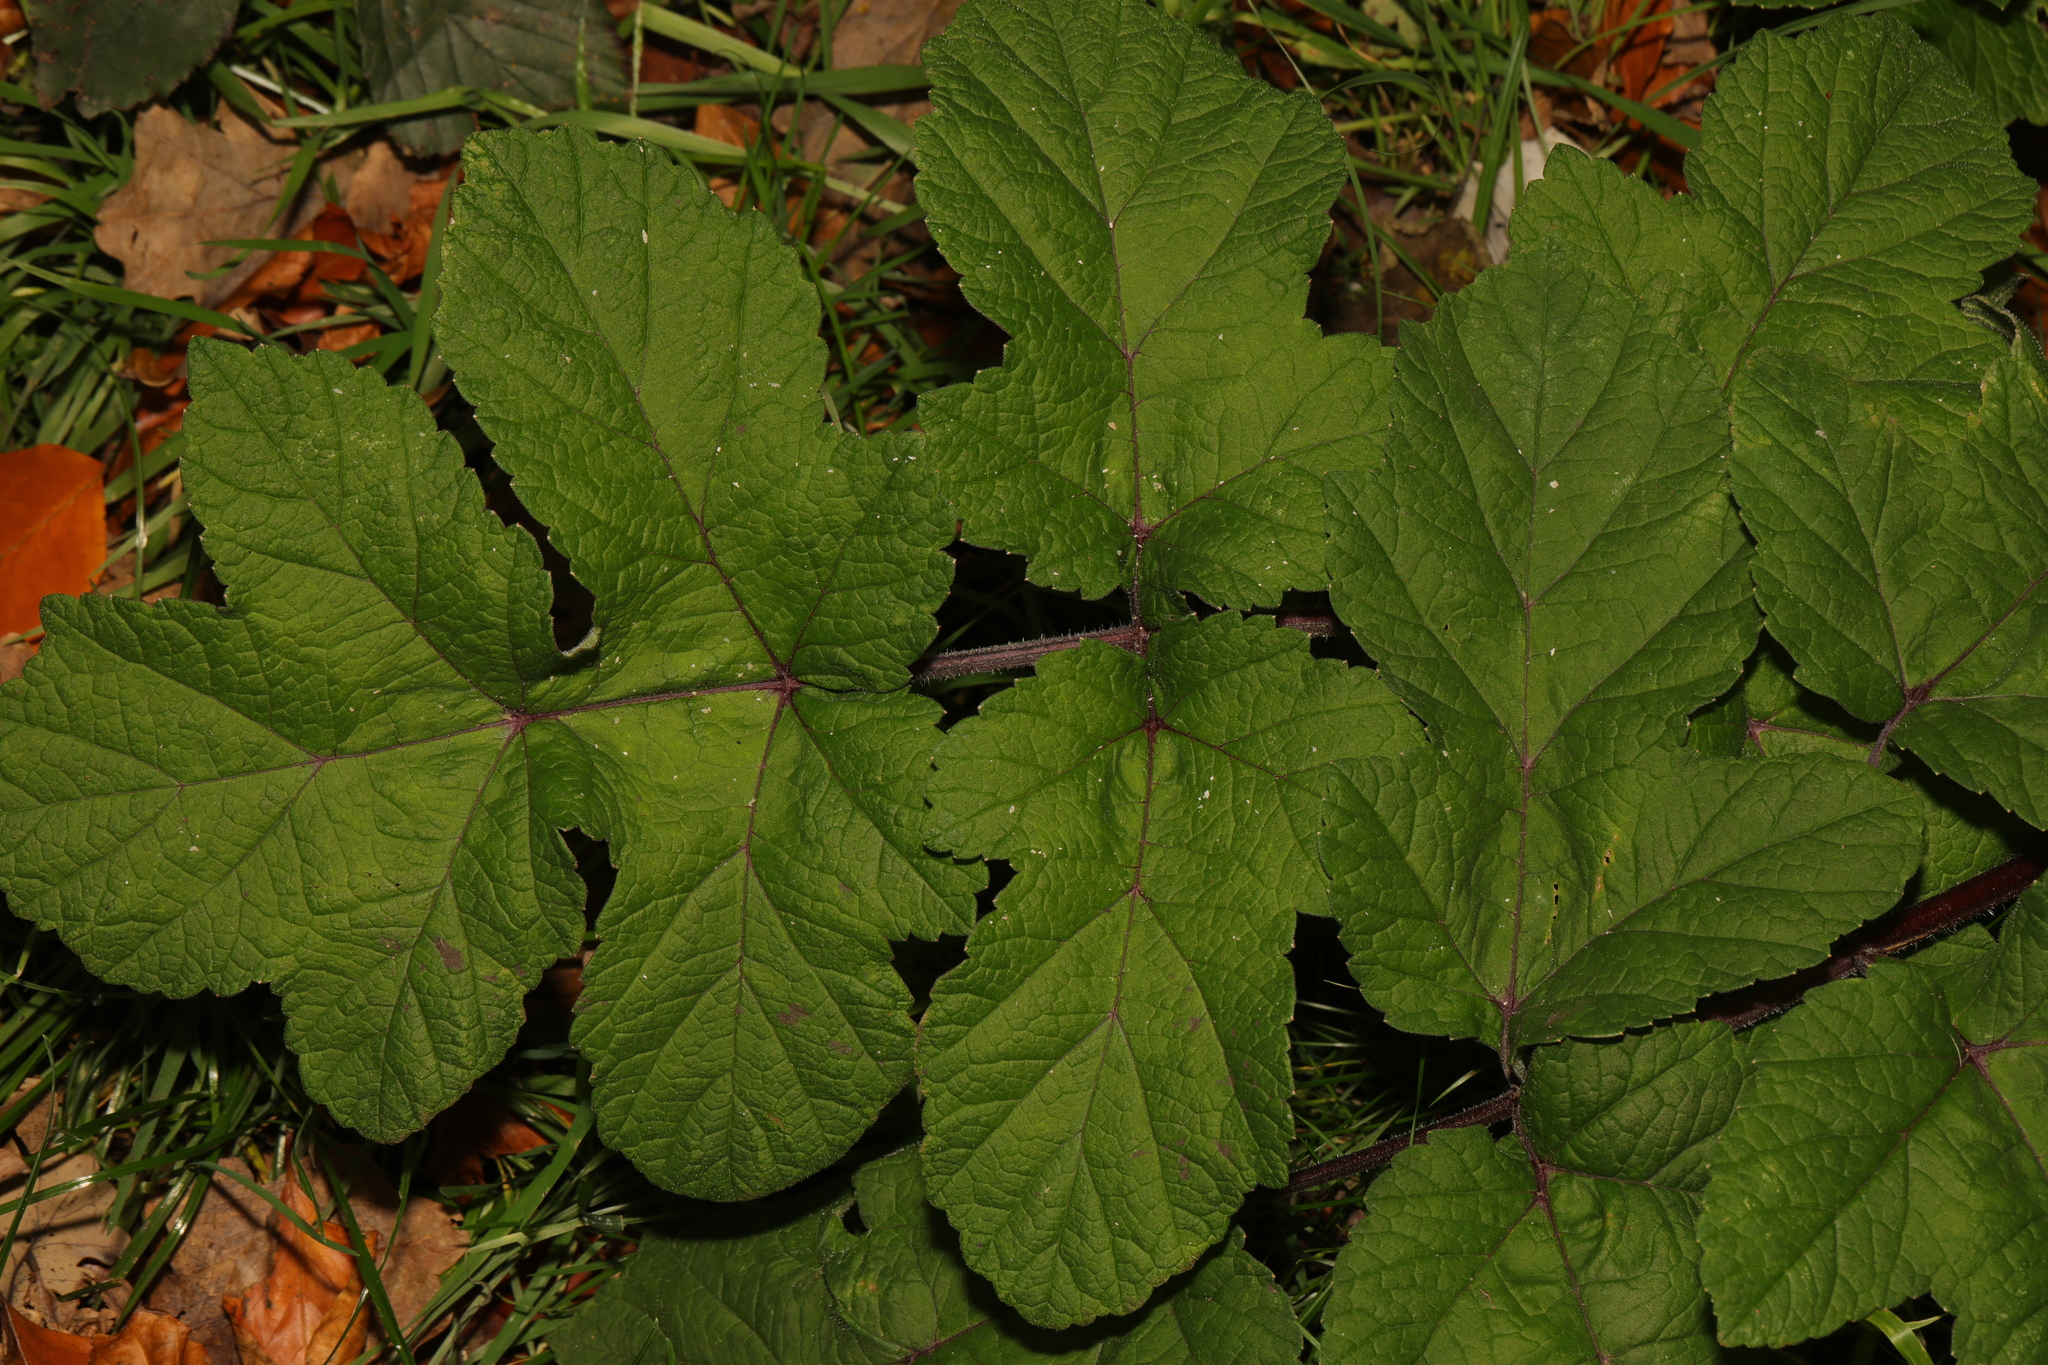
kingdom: Plantae
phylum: Tracheophyta
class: Magnoliopsida
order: Apiales
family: Apiaceae
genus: Heracleum
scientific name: Heracleum sphondylium
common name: Hogweed
